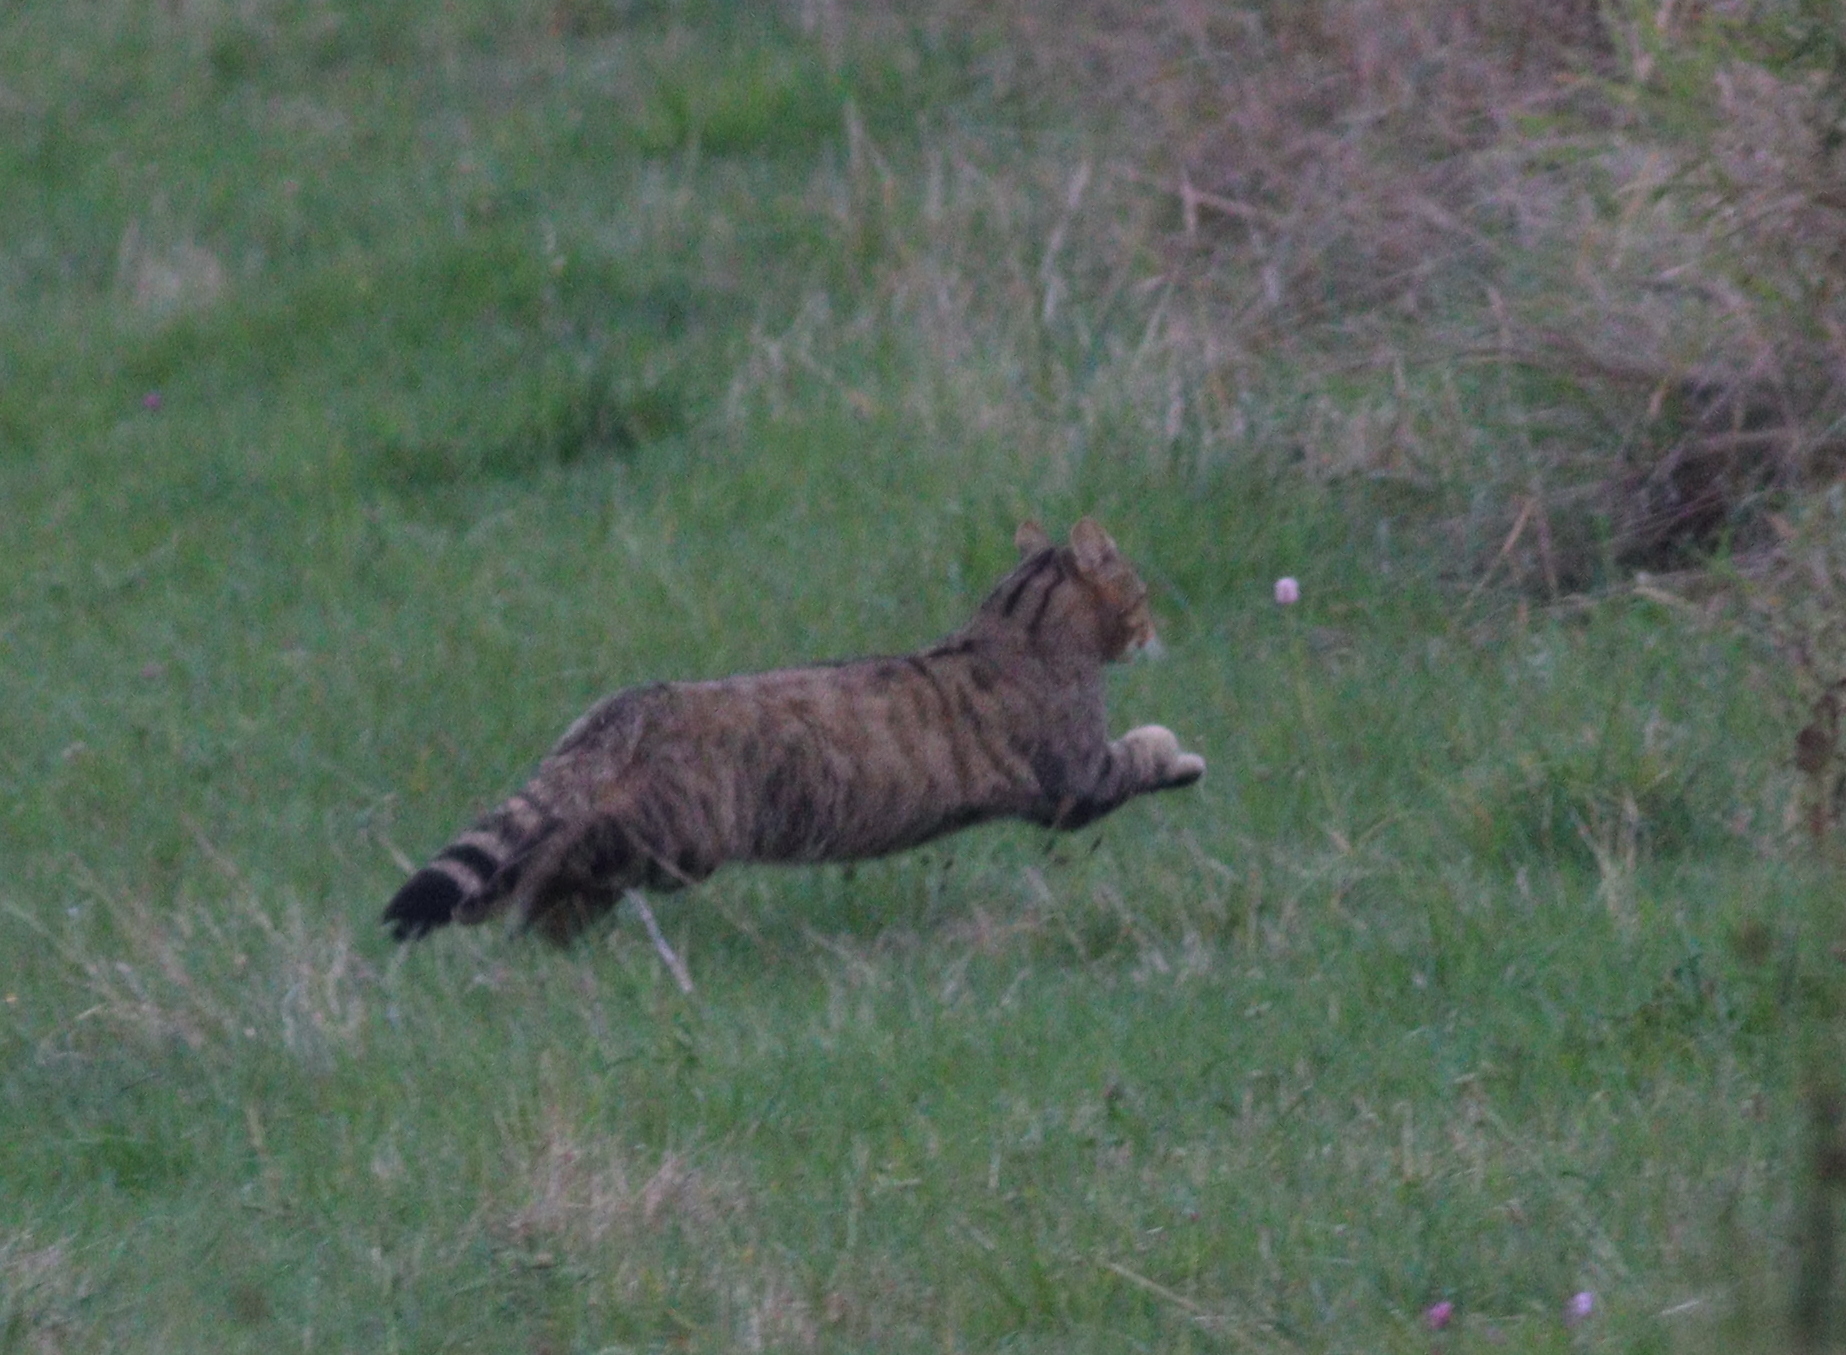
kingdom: Animalia
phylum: Chordata
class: Mammalia
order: Carnivora
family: Felidae
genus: Felis
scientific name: Felis silvestris
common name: Wildcat
